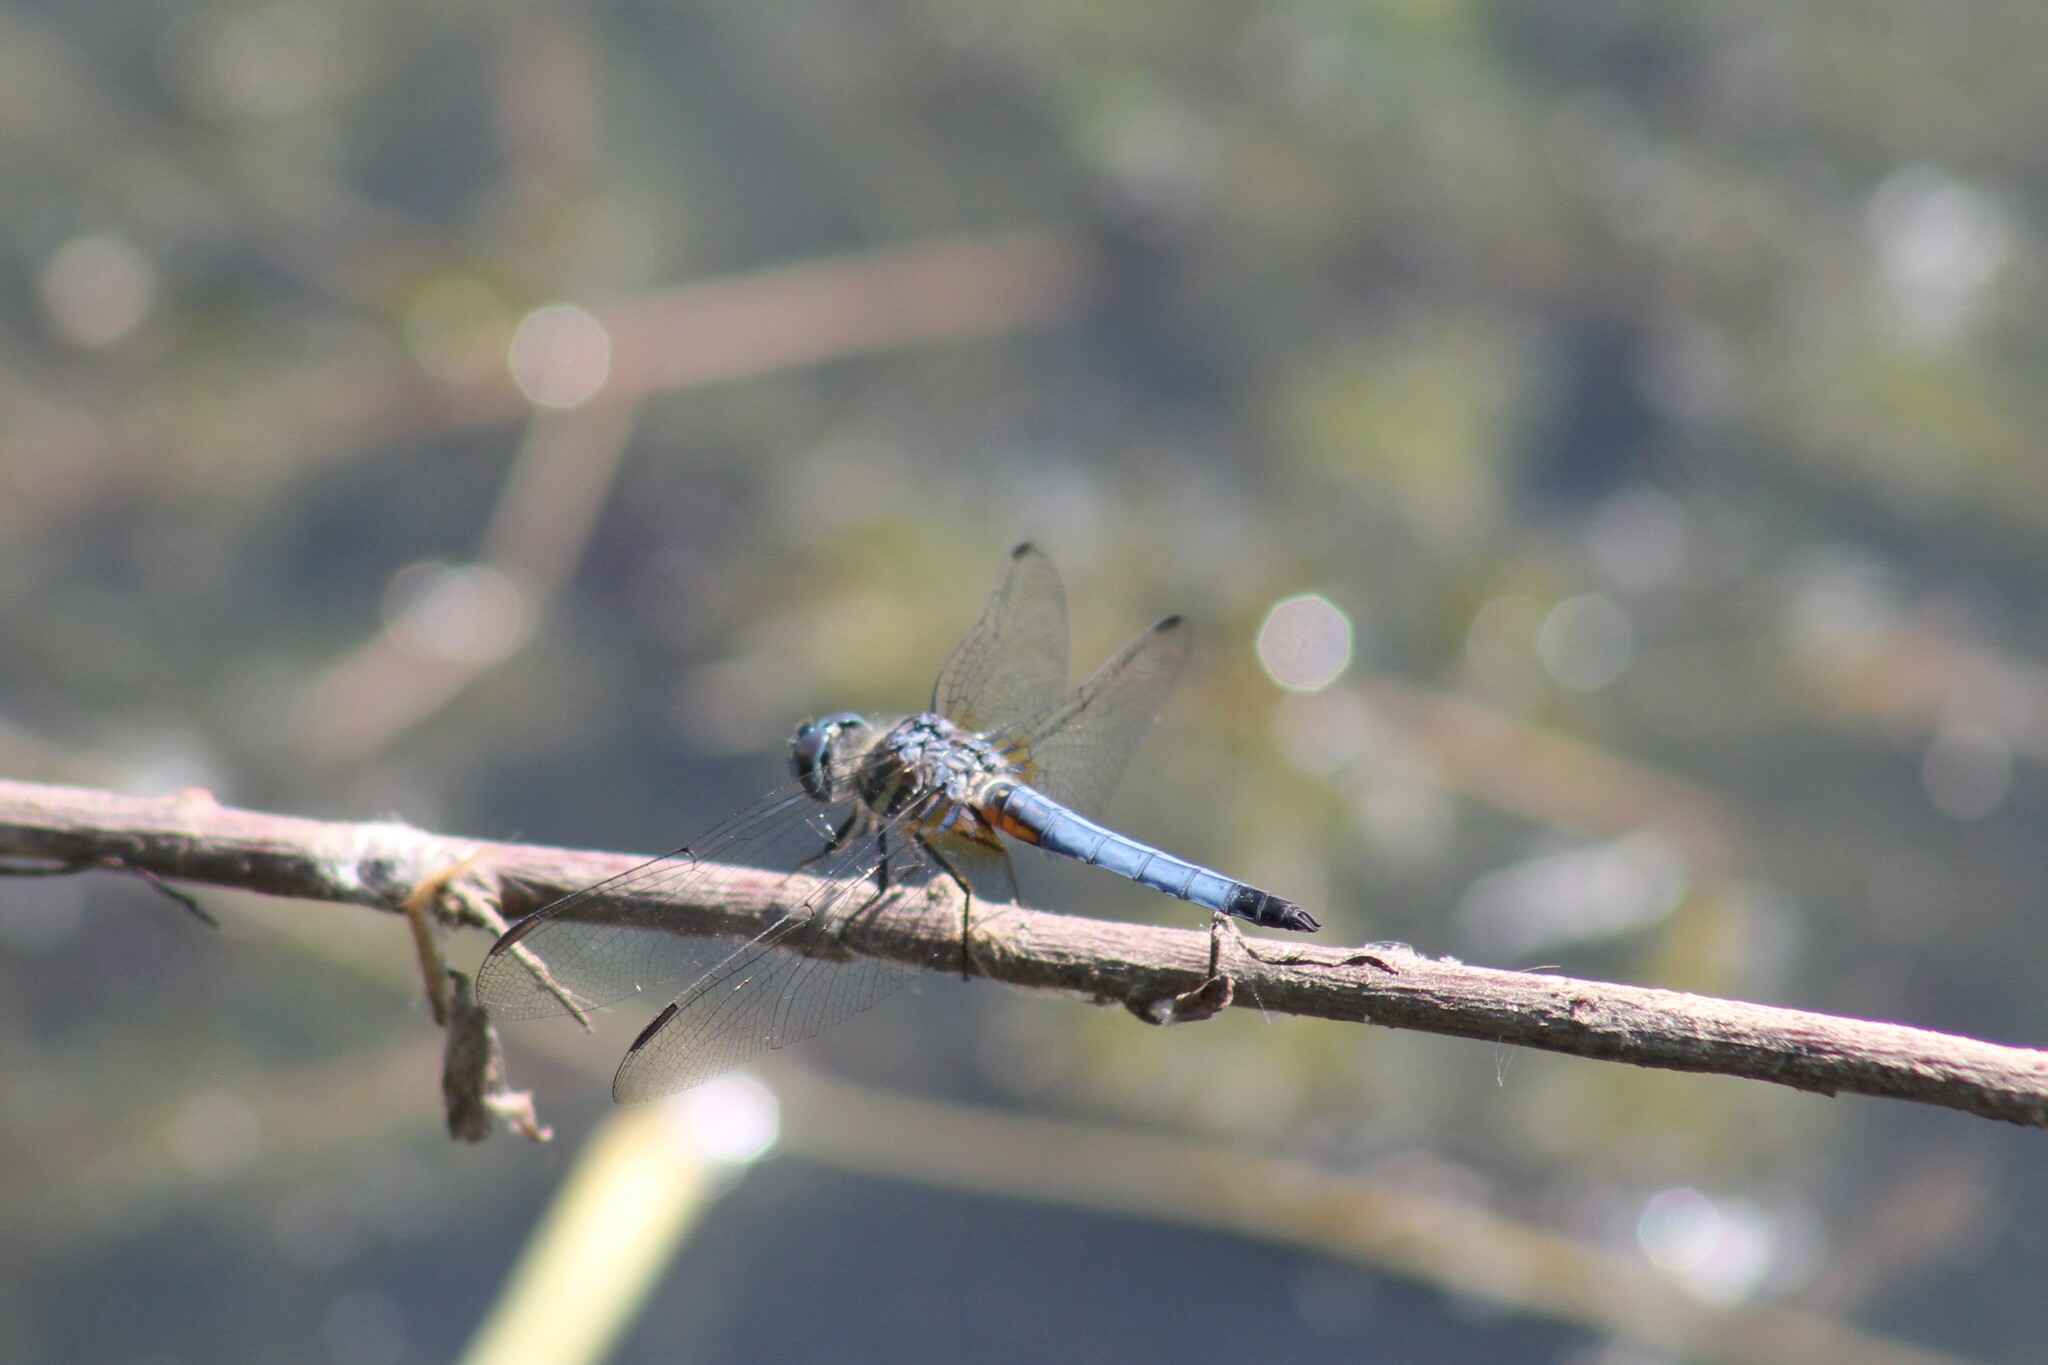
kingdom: Animalia
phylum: Arthropoda
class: Insecta
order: Odonata
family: Libellulidae
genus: Pachydiplax
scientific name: Pachydiplax longipennis
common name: Blue dasher
